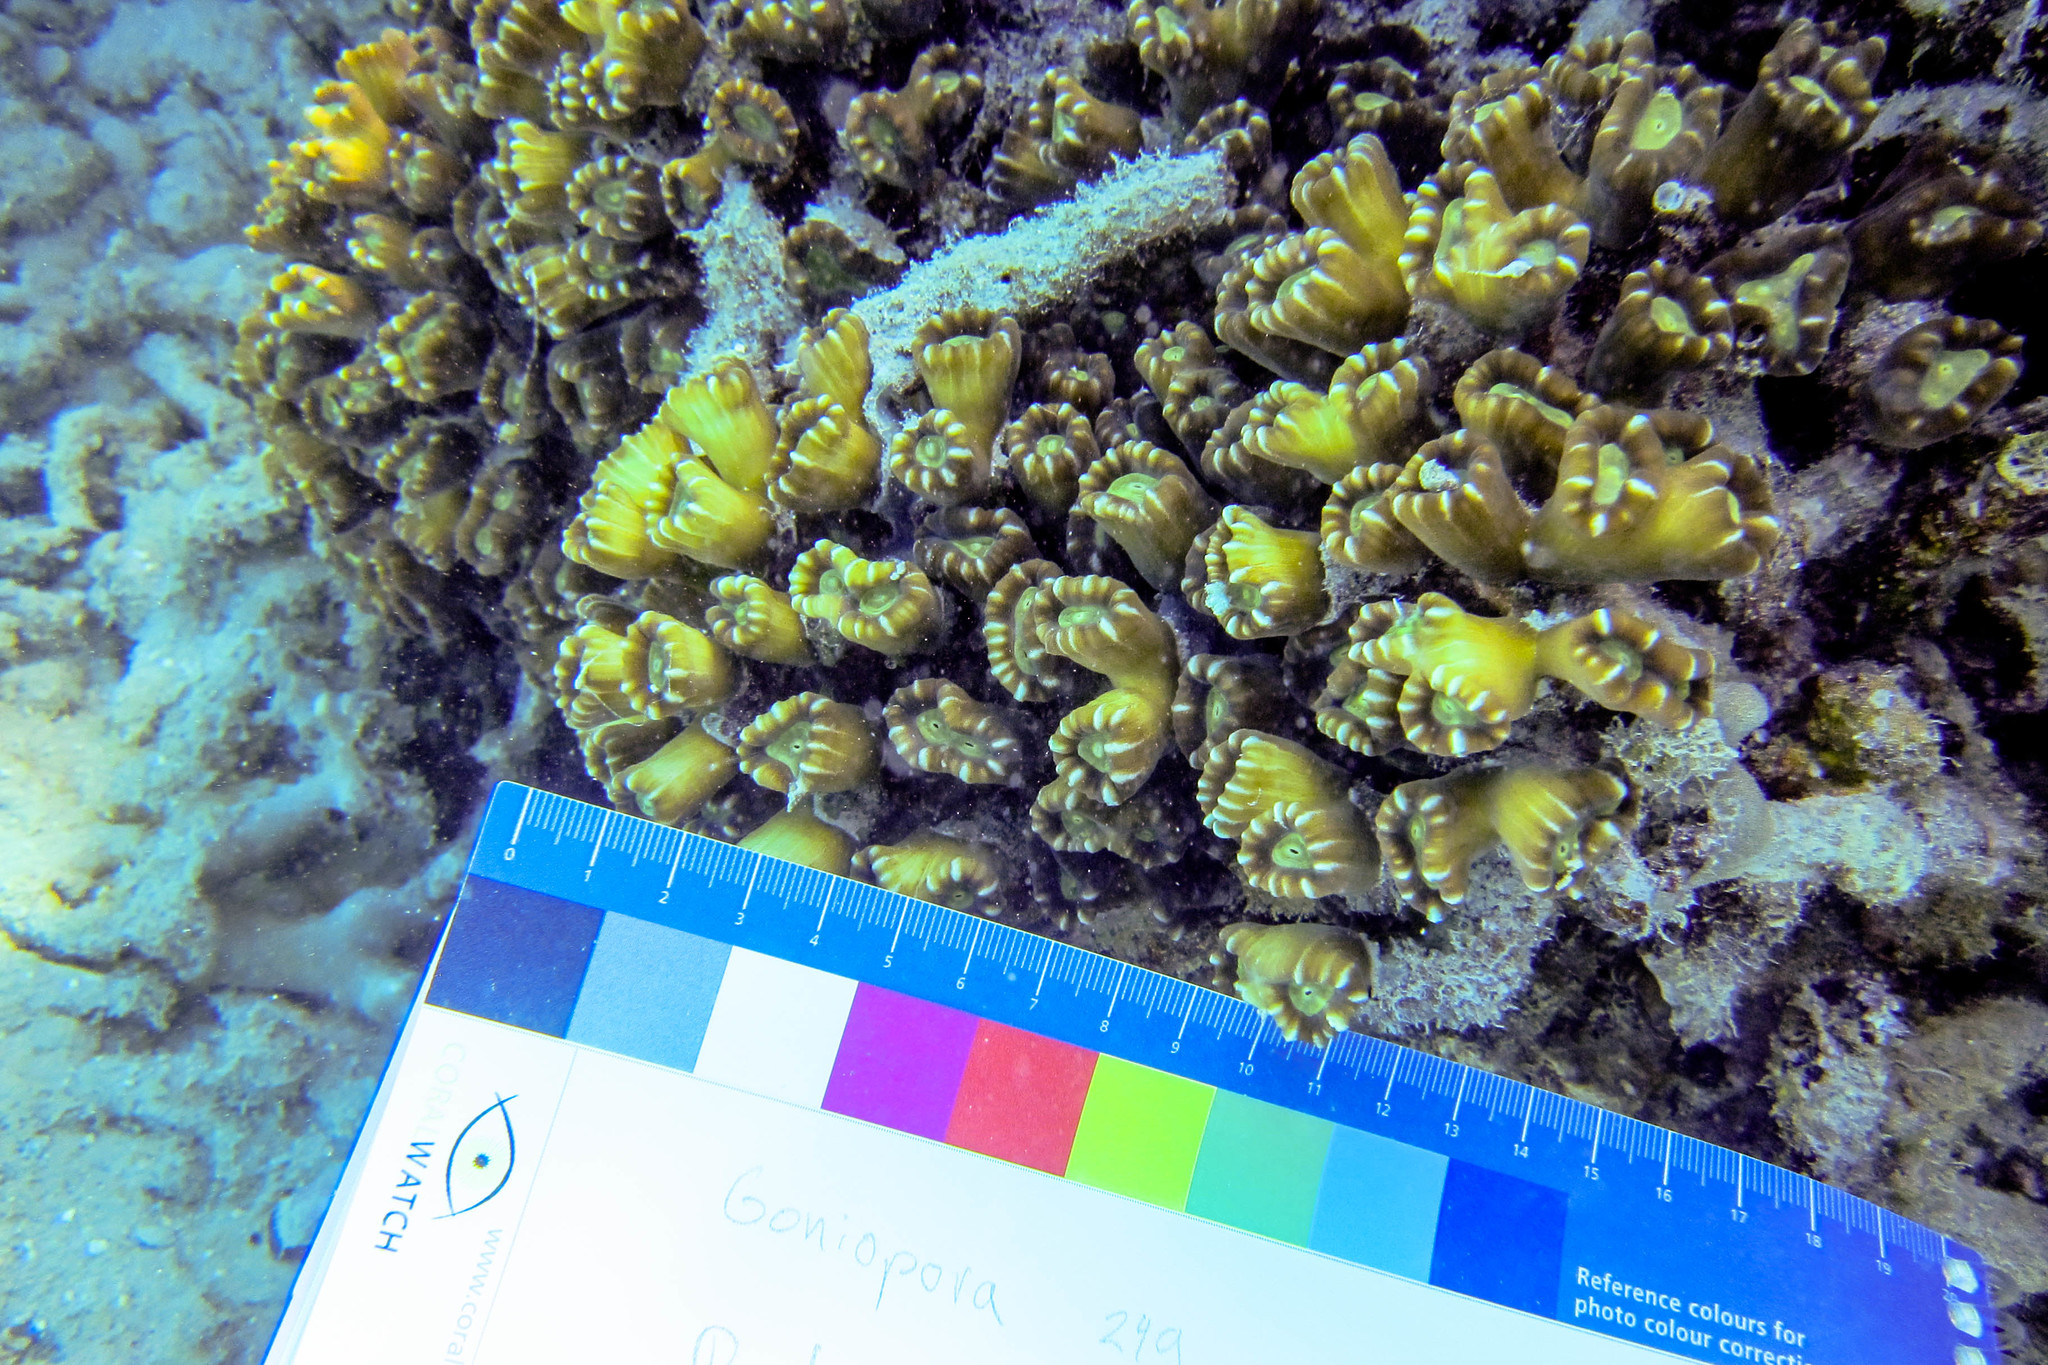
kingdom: Animalia
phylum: Cnidaria
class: Anthozoa
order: Scleractinia
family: Merulinidae
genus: Caulastraea
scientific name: Caulastraea furcata
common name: Finger coral
